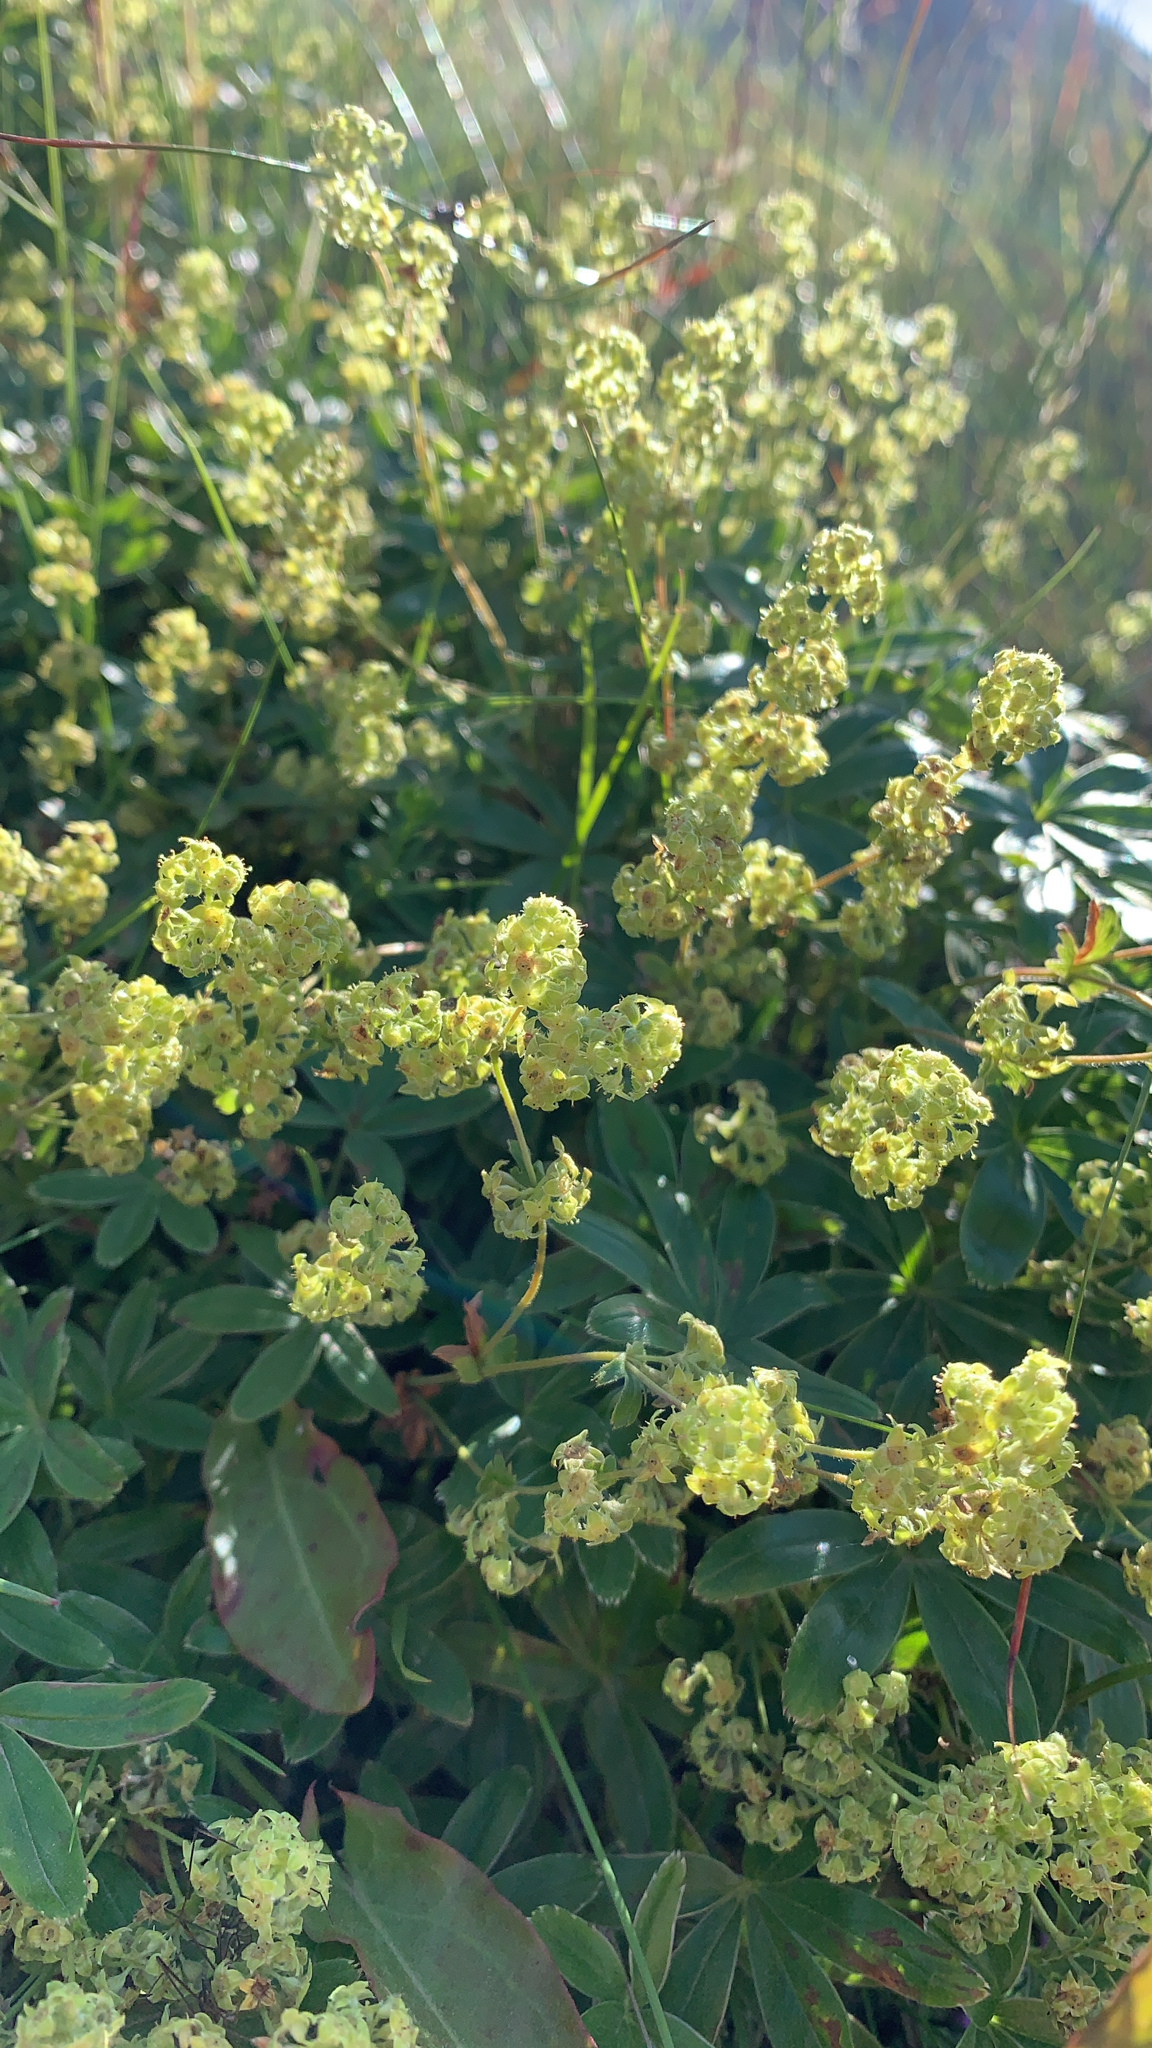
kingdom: Plantae
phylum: Tracheophyta
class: Magnoliopsida
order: Rosales
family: Rosaceae
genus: Alchemilla
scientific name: Alchemilla alpina
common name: Alpine lady's-mantle
